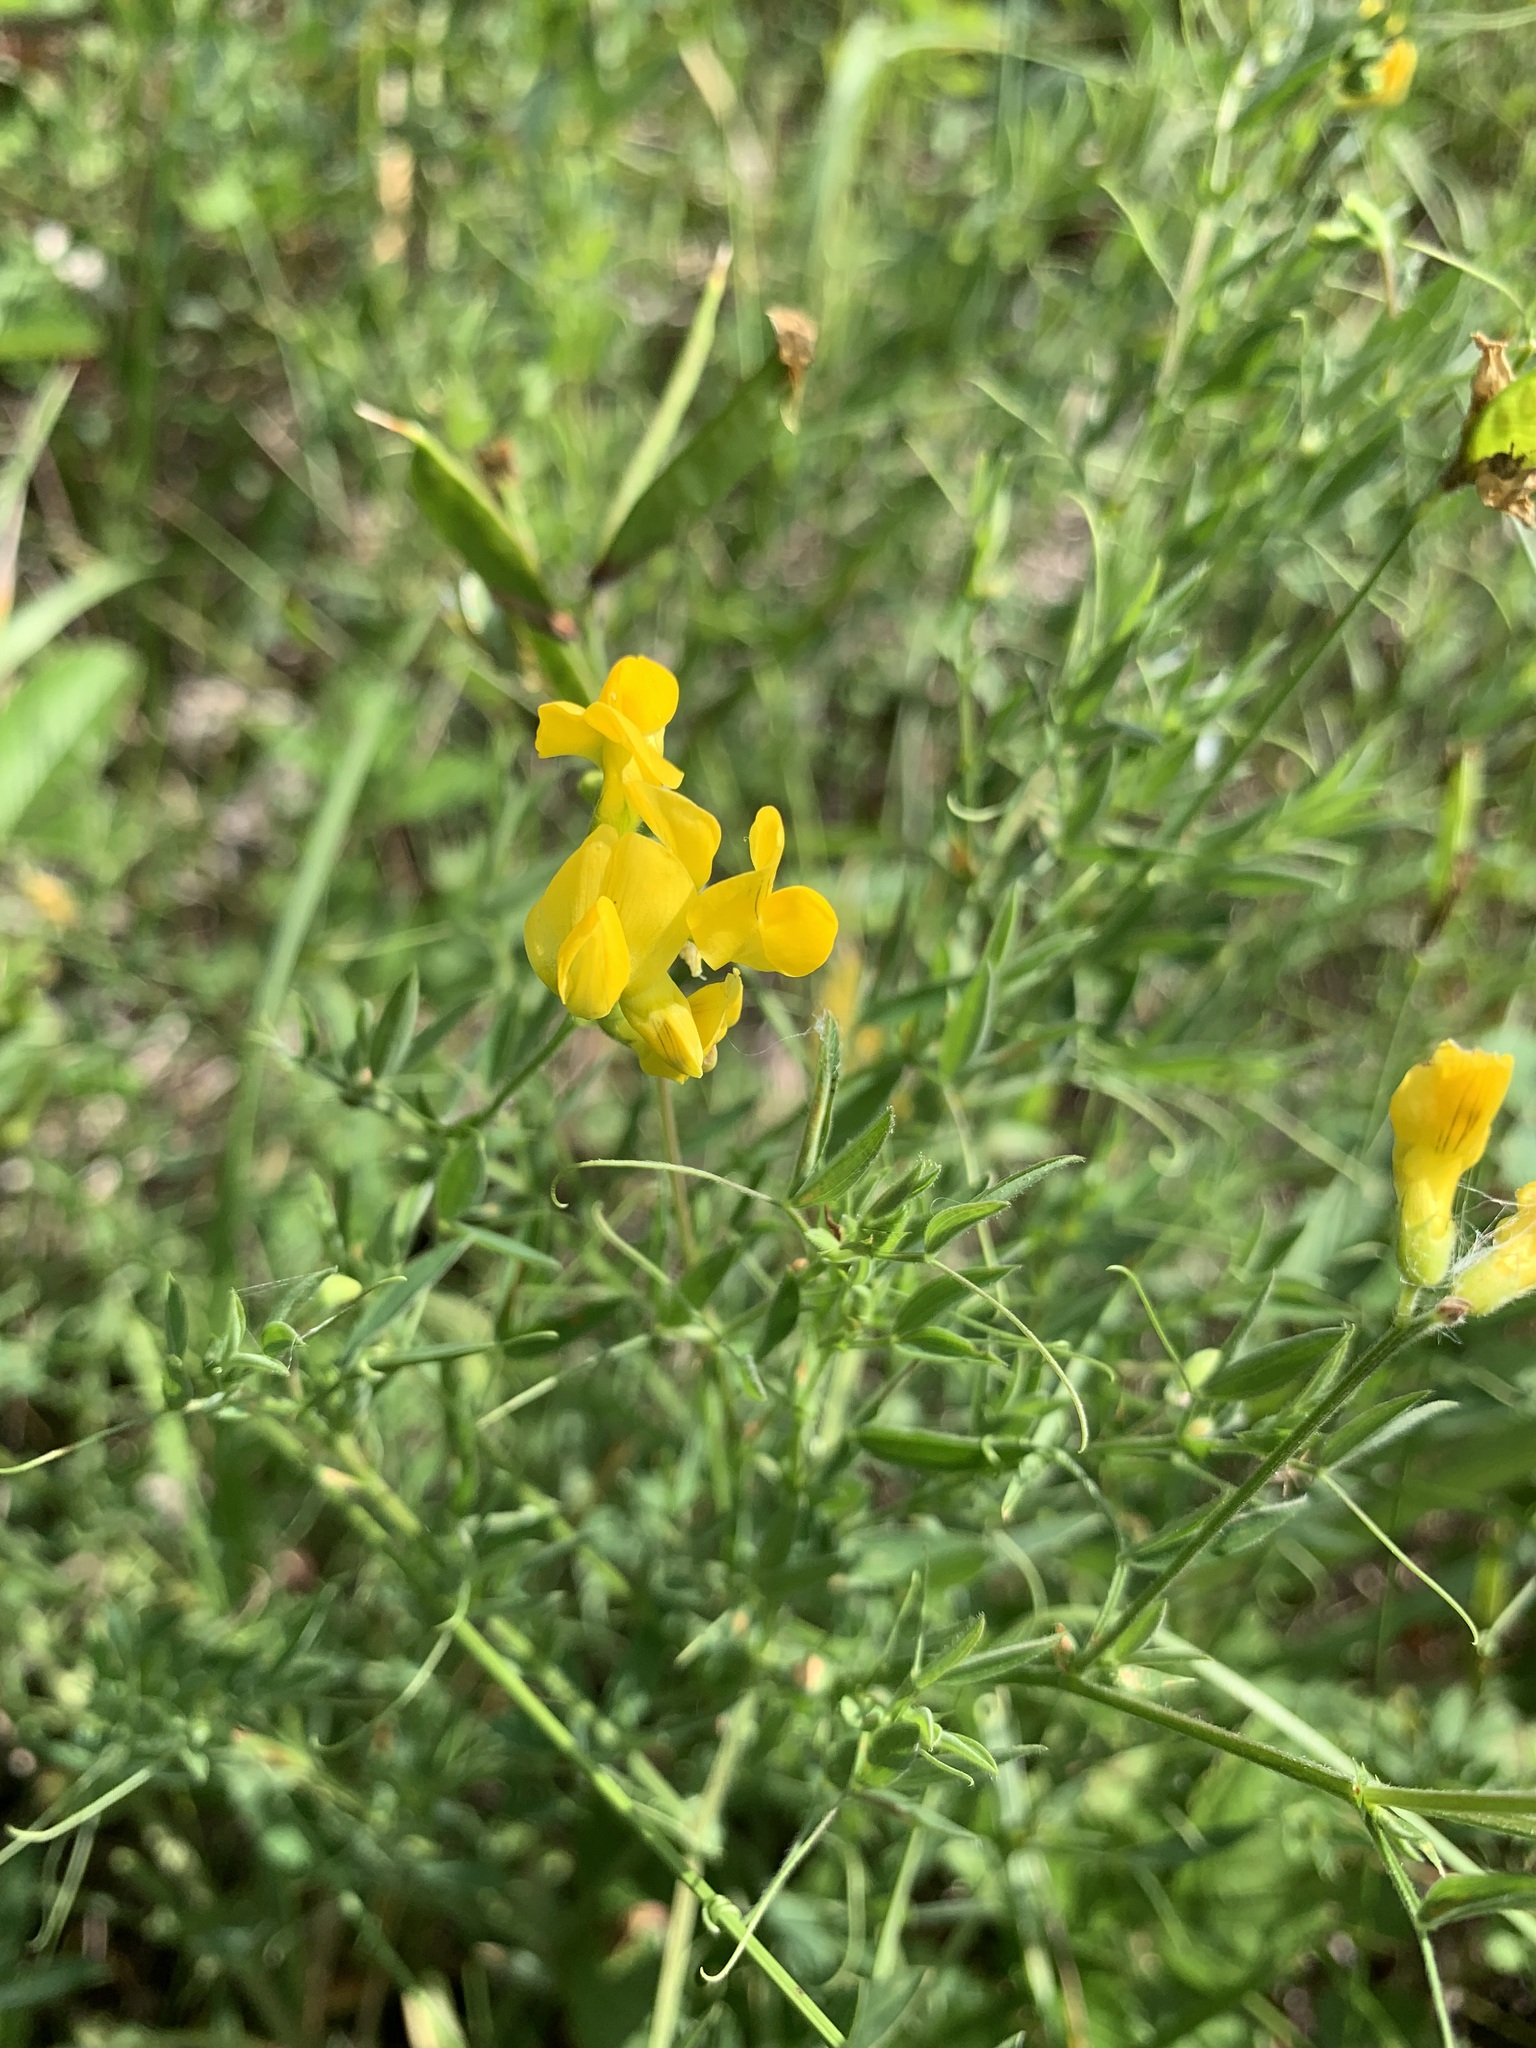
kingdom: Plantae
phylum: Tracheophyta
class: Magnoliopsida
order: Fabales
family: Fabaceae
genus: Lathyrus
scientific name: Lathyrus pratensis
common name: Meadow vetchling
